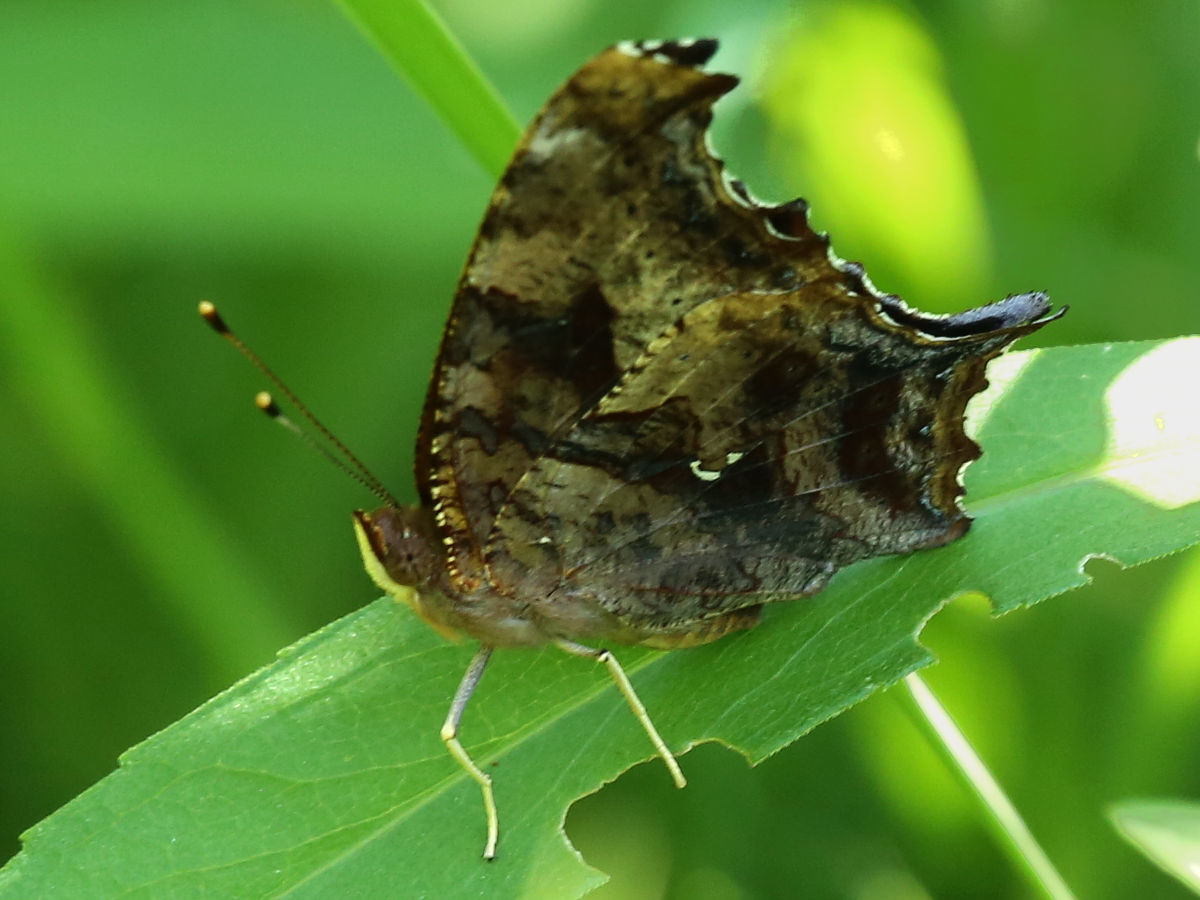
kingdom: Animalia
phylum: Arthropoda
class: Insecta
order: Lepidoptera
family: Nymphalidae
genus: Polygonia
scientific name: Polygonia interrogationis
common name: Question mark
